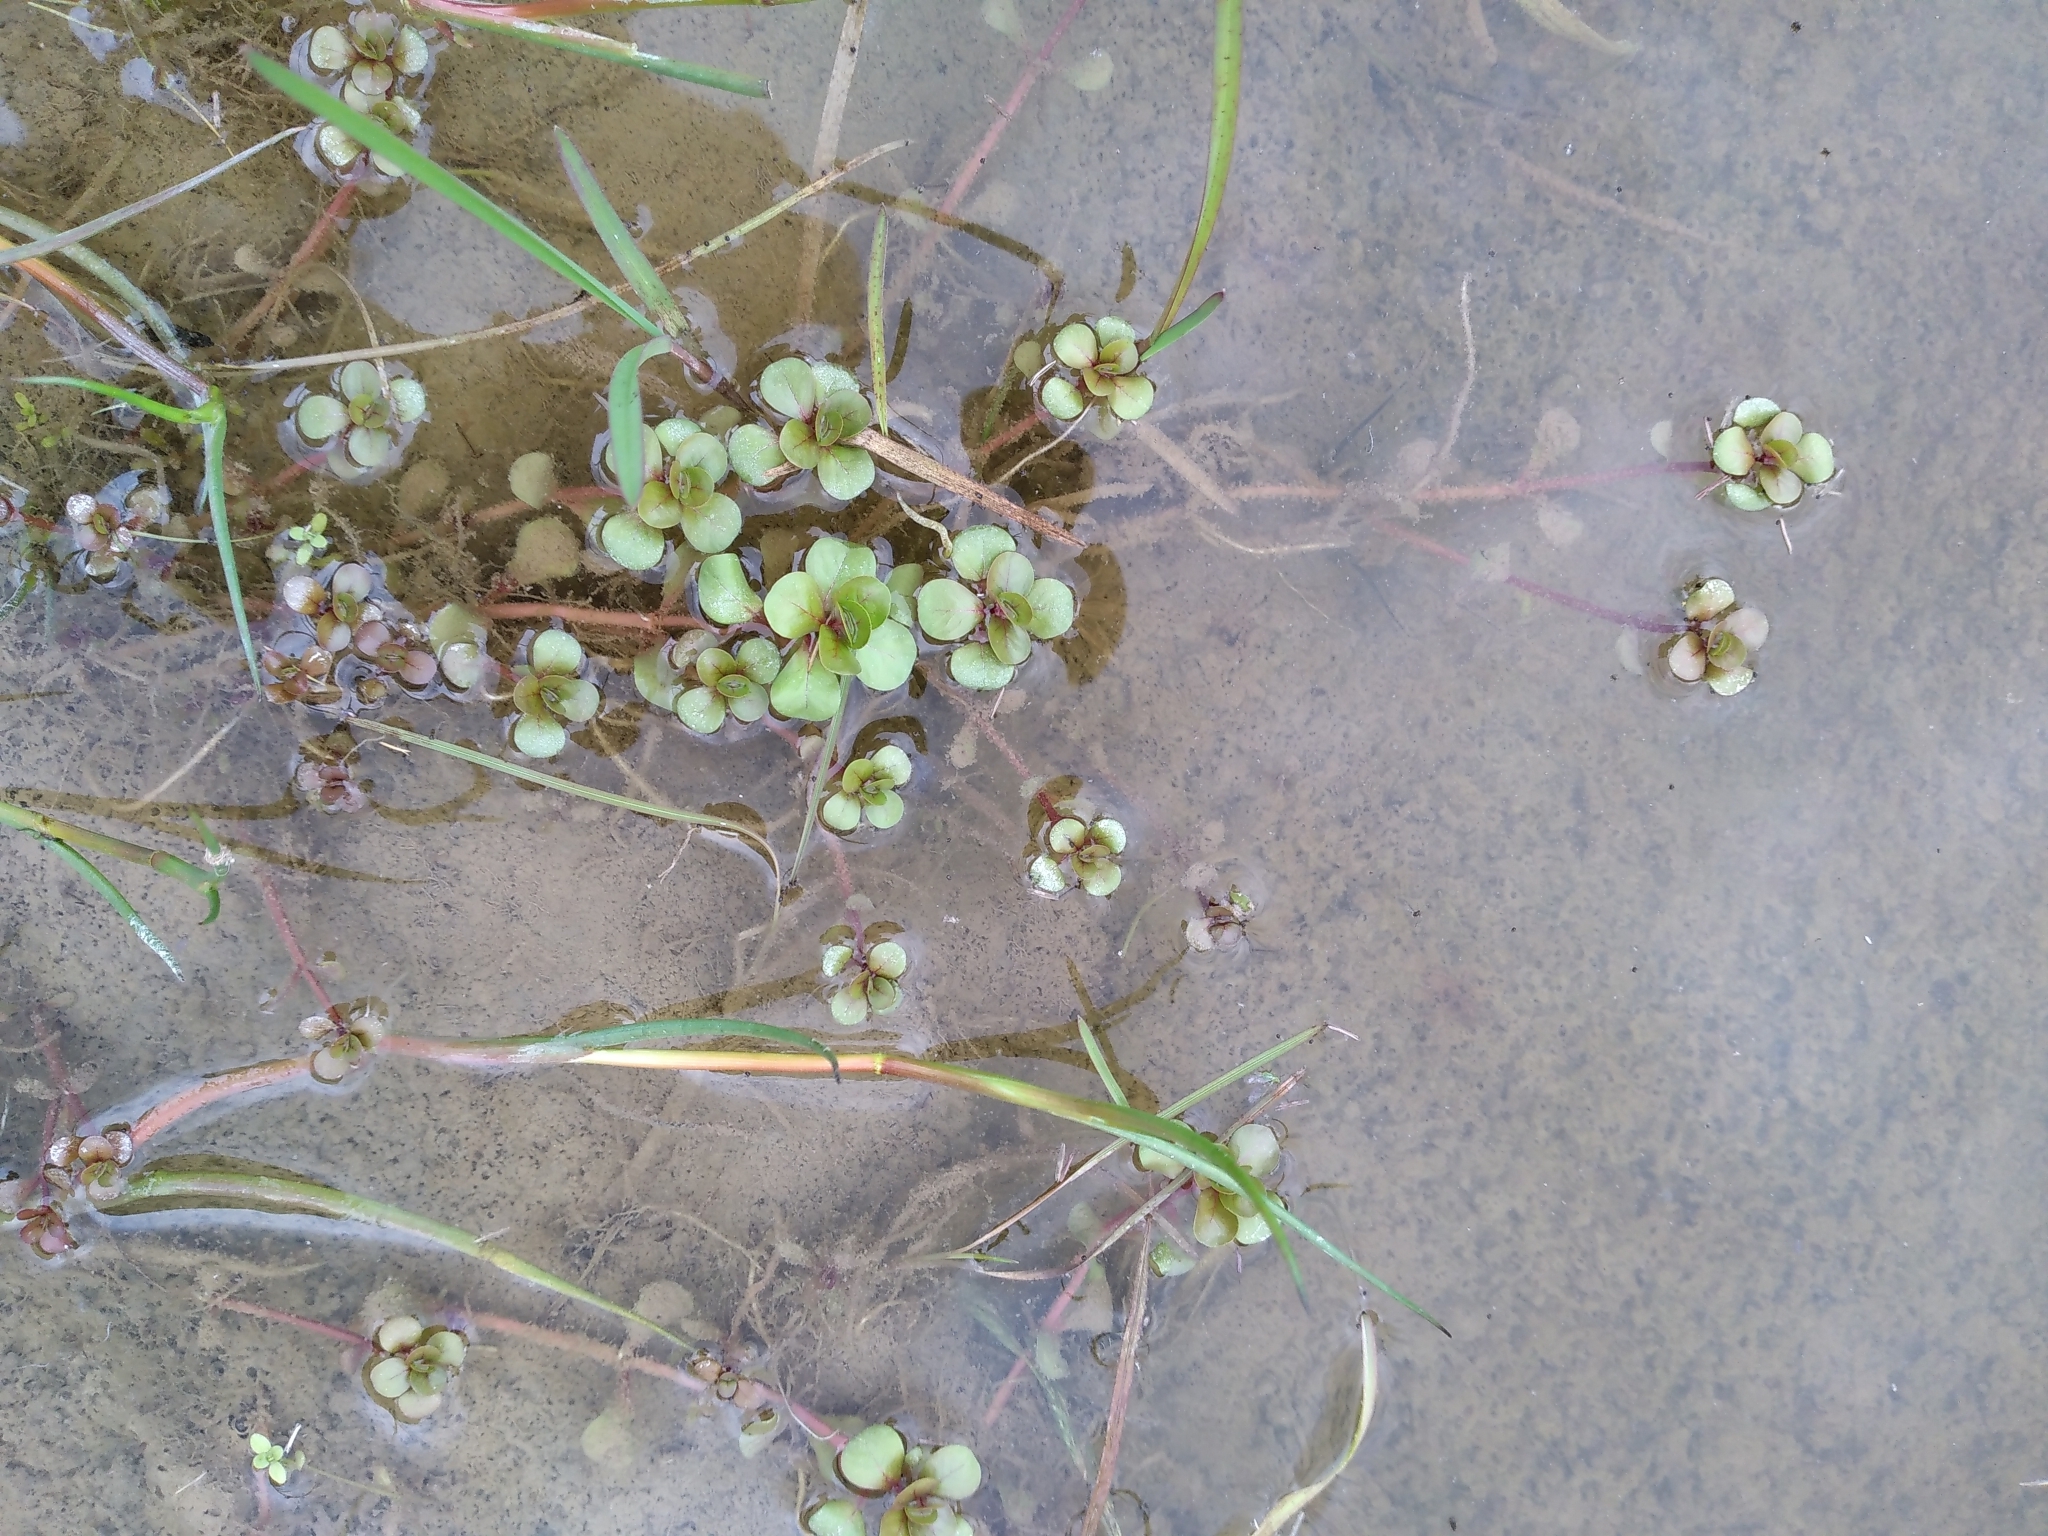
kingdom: Plantae
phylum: Tracheophyta
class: Magnoliopsida
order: Myrtales
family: Lythraceae
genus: Lythrum
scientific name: Lythrum portula
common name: Water purslane
